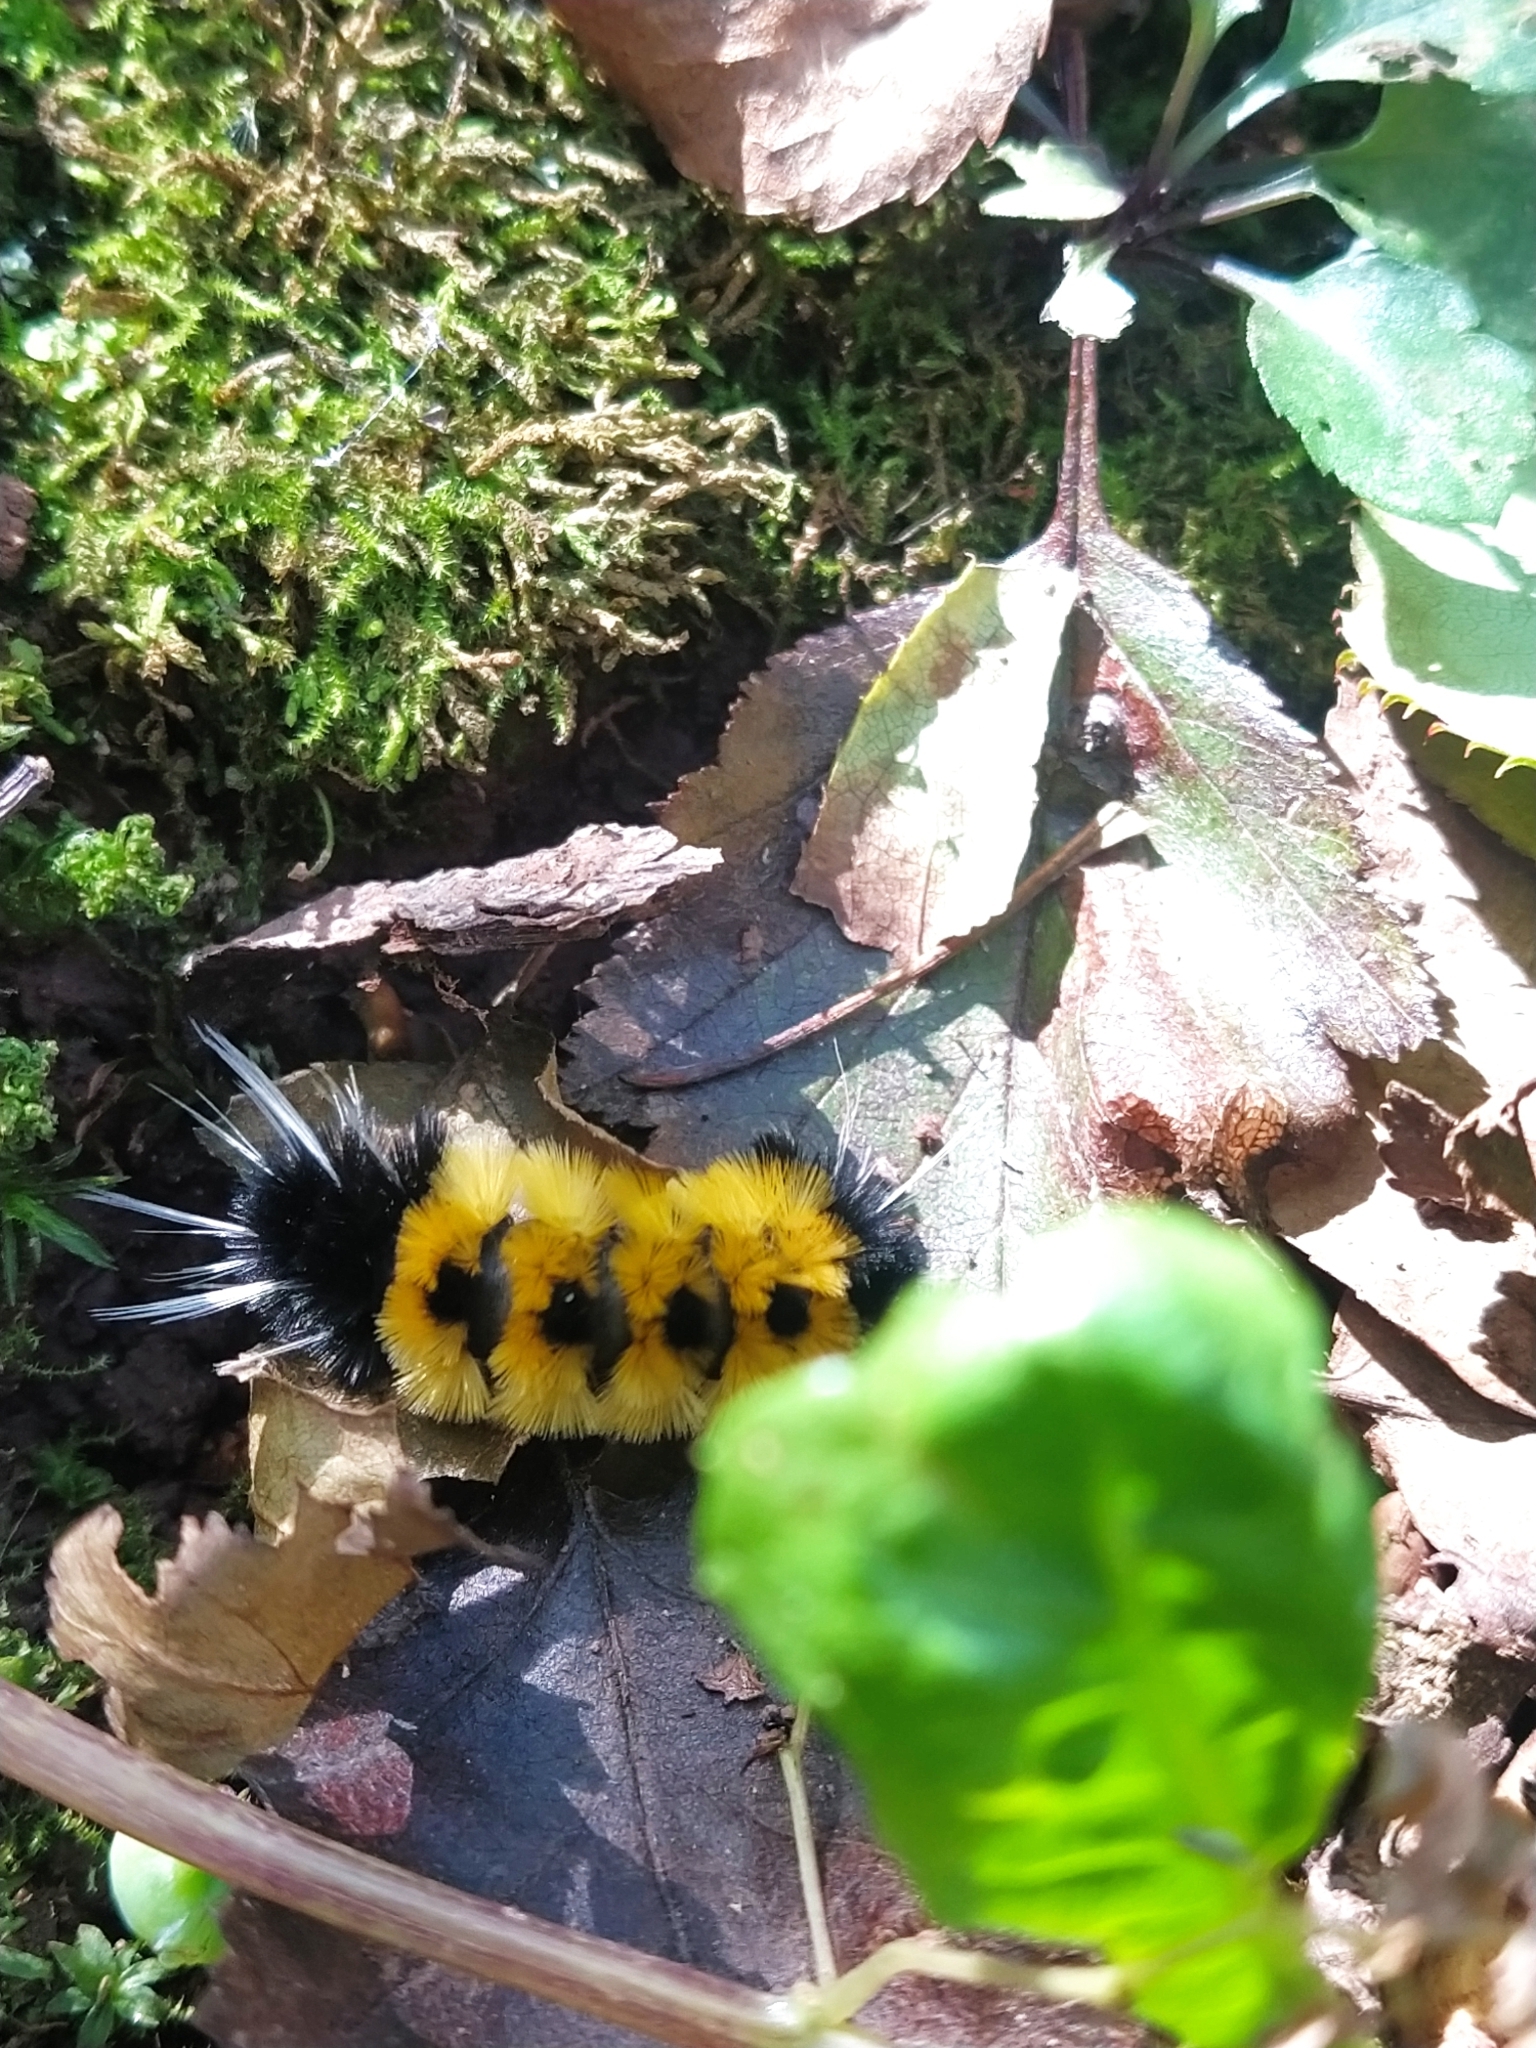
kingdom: Animalia
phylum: Arthropoda
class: Insecta
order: Lepidoptera
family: Erebidae
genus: Lophocampa
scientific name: Lophocampa maculata
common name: Spotted tussock moth
